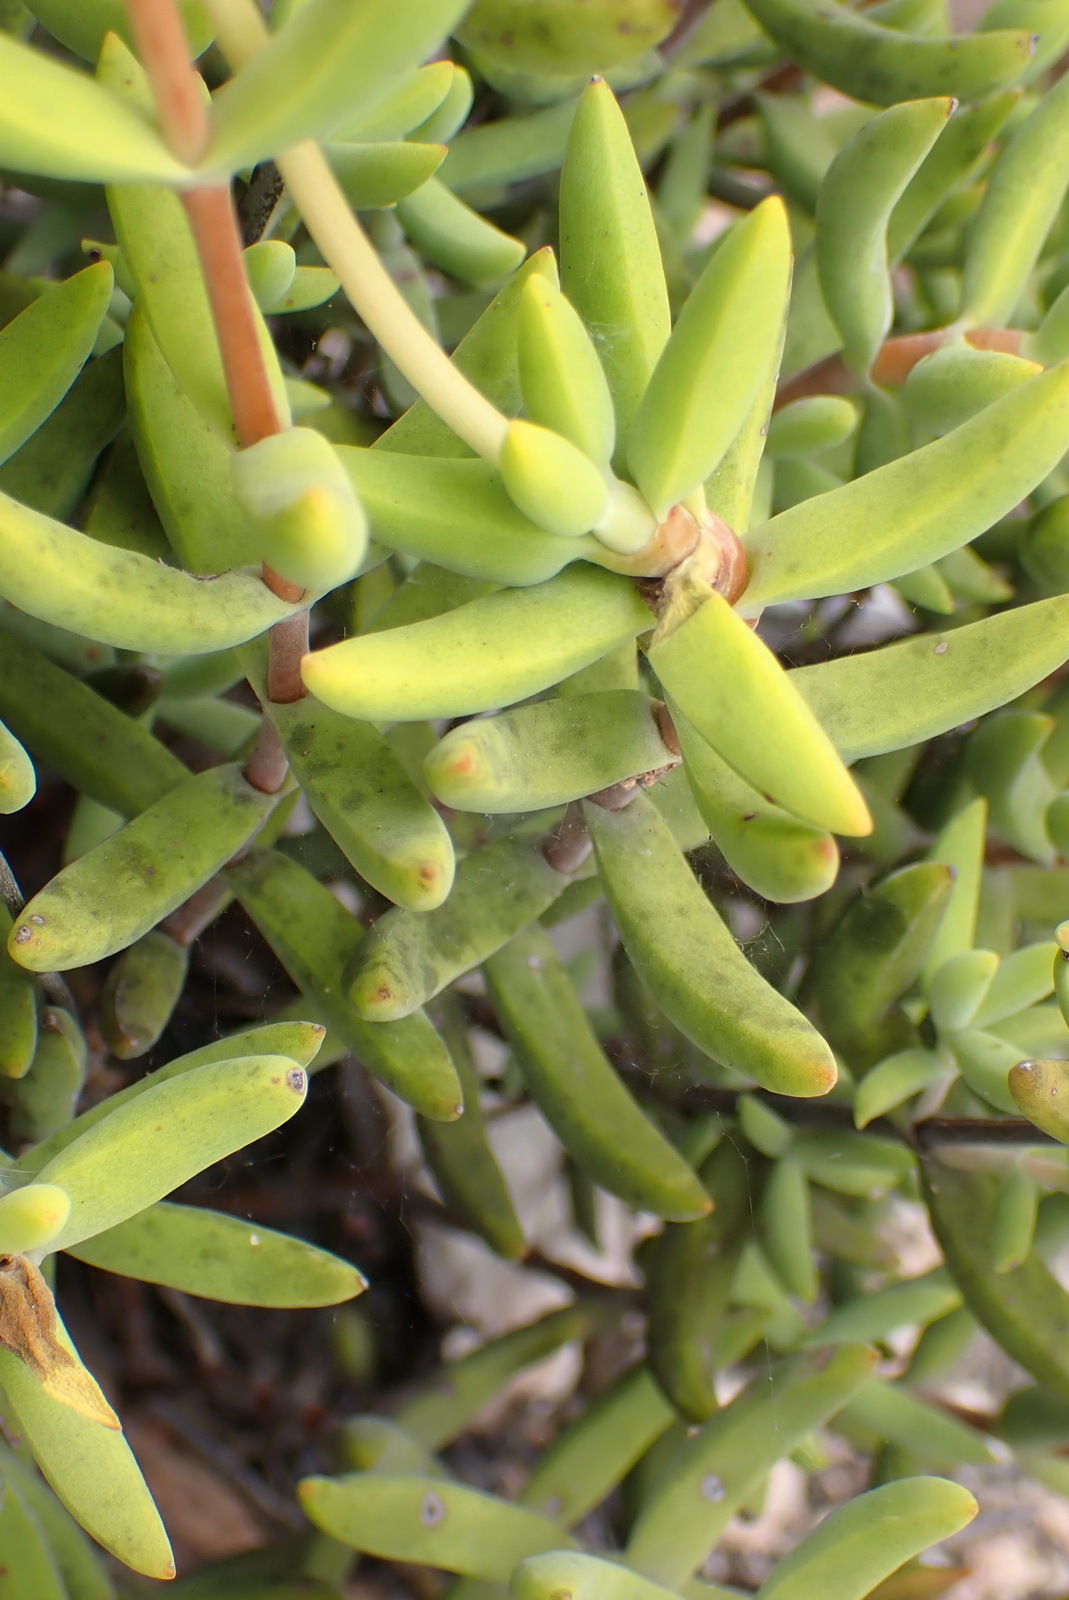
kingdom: Plantae
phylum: Tracheophyta
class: Magnoliopsida
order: Saxifragales
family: Crassulaceae
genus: Crassula
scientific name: Crassula mollis
